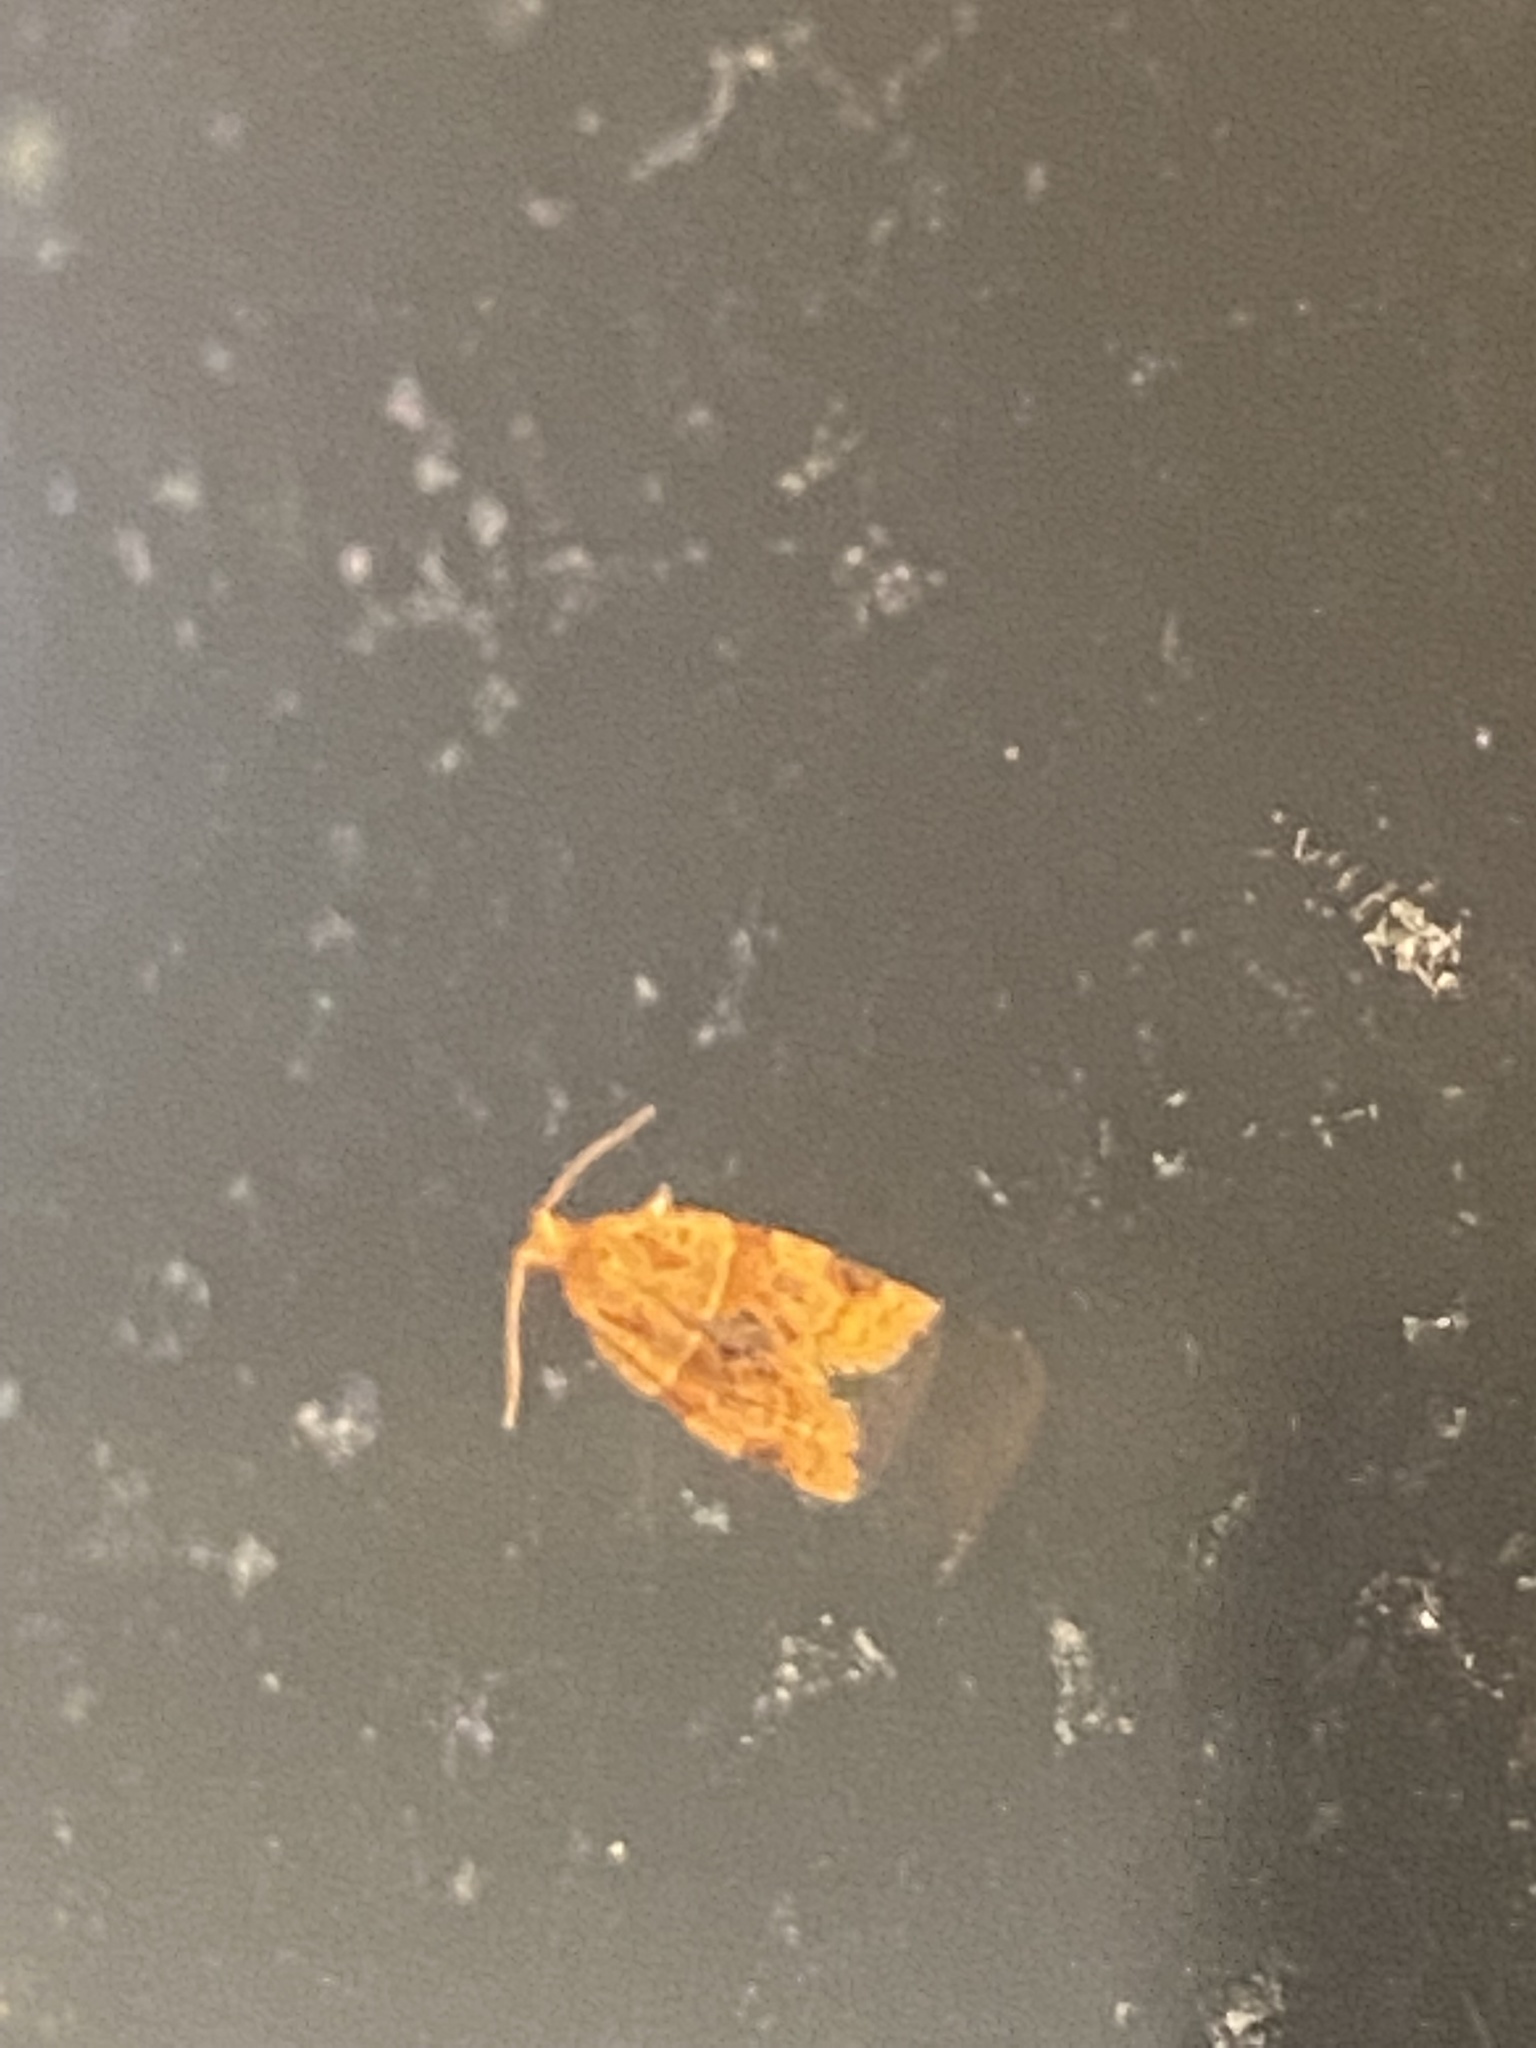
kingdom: Animalia
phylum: Arthropoda
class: Insecta
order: Lepidoptera
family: Tortricidae
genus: Clepsis
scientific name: Clepsis peritana
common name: Garden tortrix
